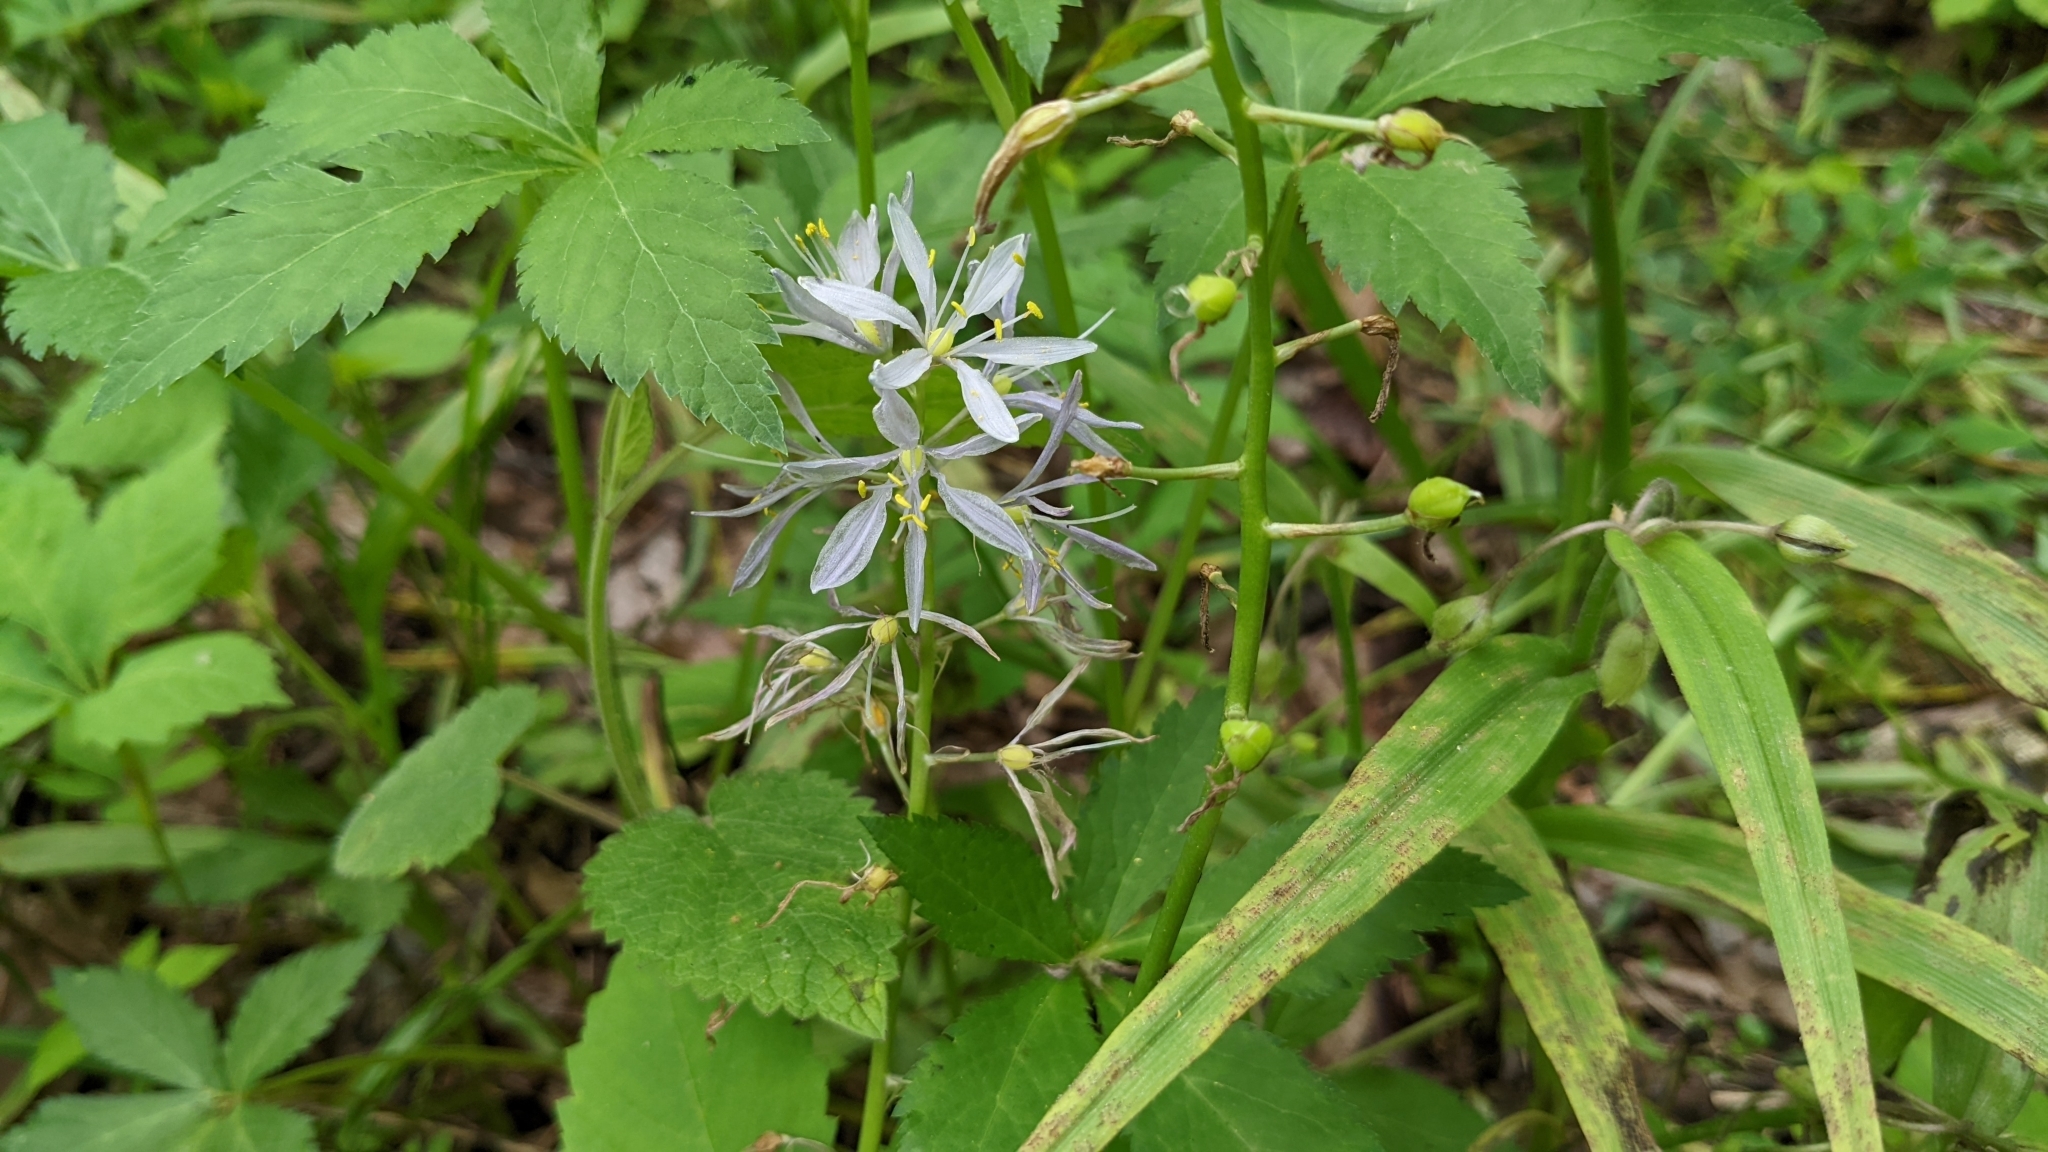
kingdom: Plantae
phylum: Tracheophyta
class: Liliopsida
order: Asparagales
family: Asparagaceae
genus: Camassia
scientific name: Camassia scilloides
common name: Wild hyacinth
